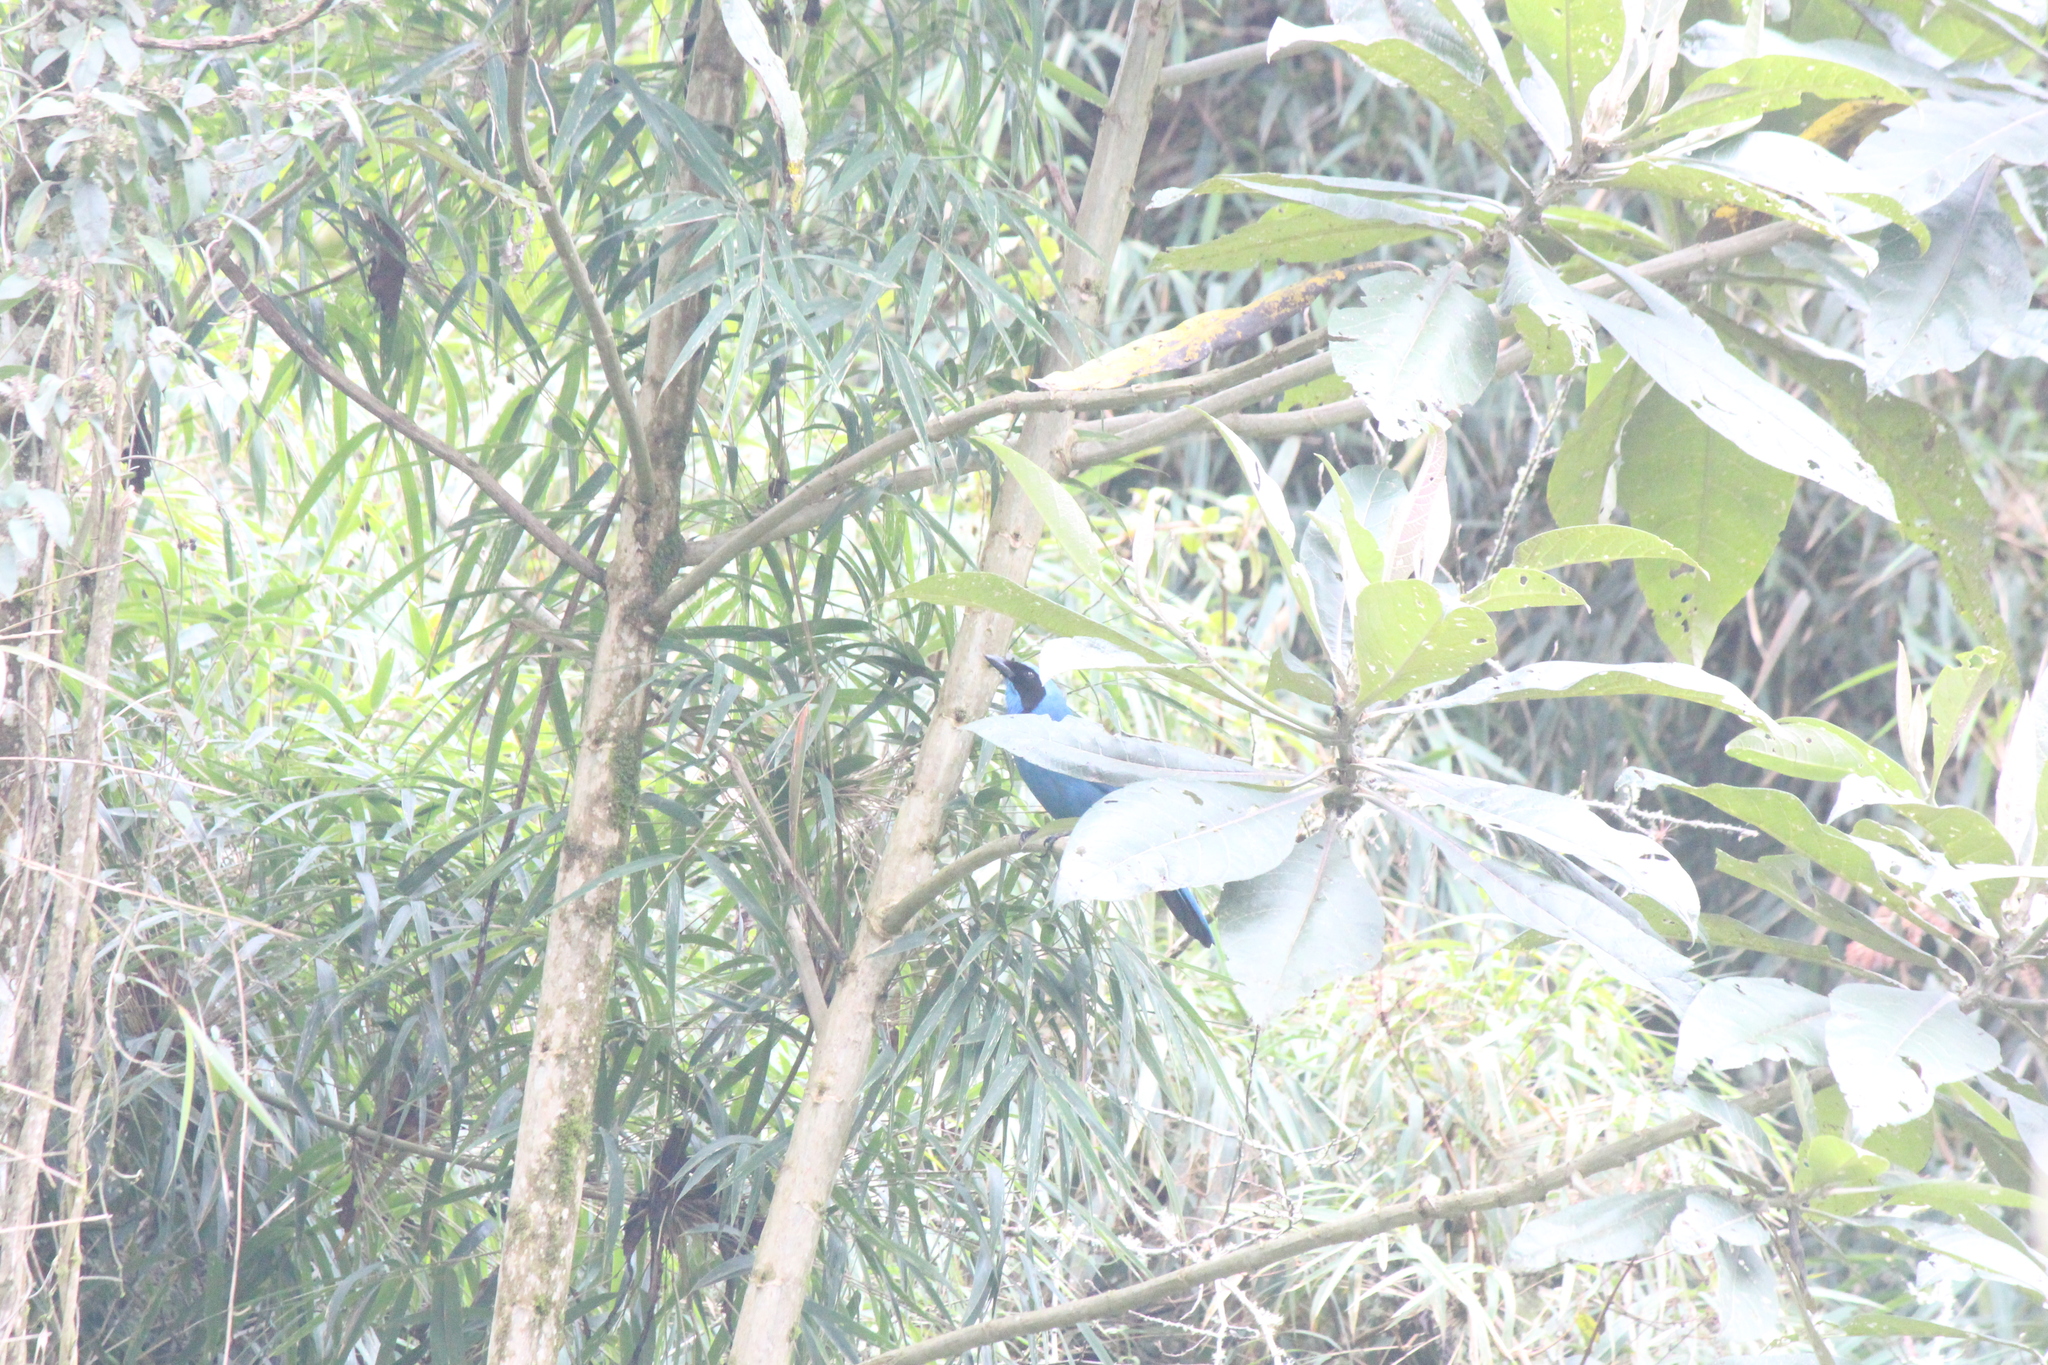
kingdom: Animalia
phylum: Chordata
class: Aves
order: Passeriformes
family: Corvidae
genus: Cyanolyca
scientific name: Cyanolyca turcosa
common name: Turquoise jay
